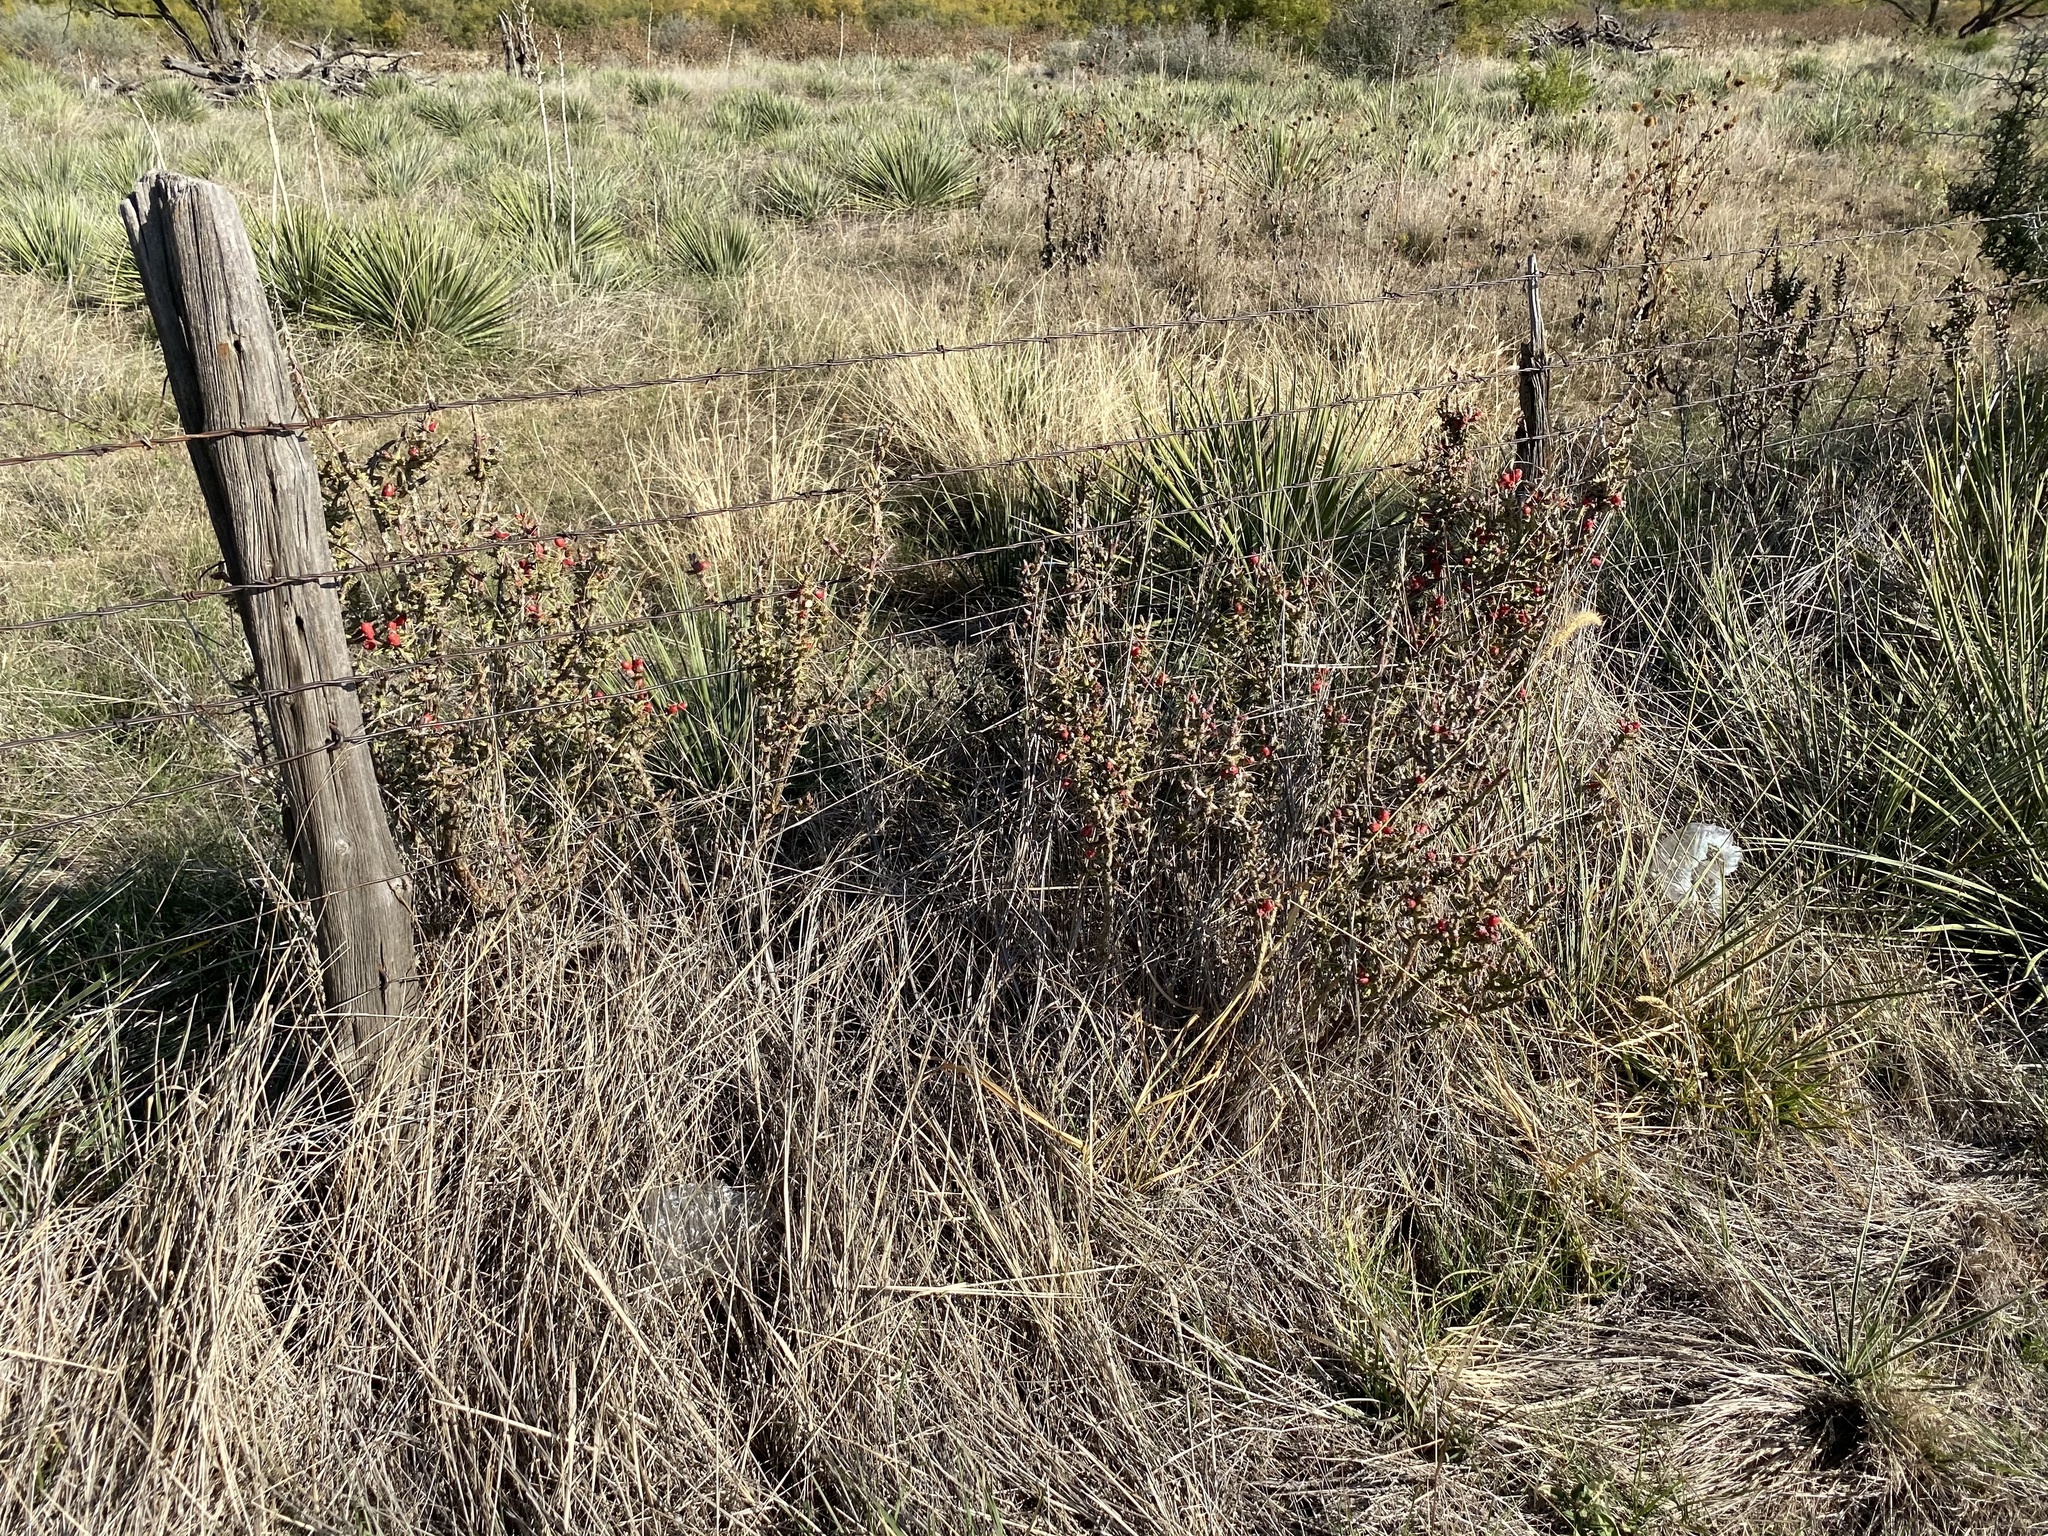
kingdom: Plantae
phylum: Tracheophyta
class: Magnoliopsida
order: Caryophyllales
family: Cactaceae
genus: Cylindropuntia
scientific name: Cylindropuntia leptocaulis
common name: Christmas cactus
